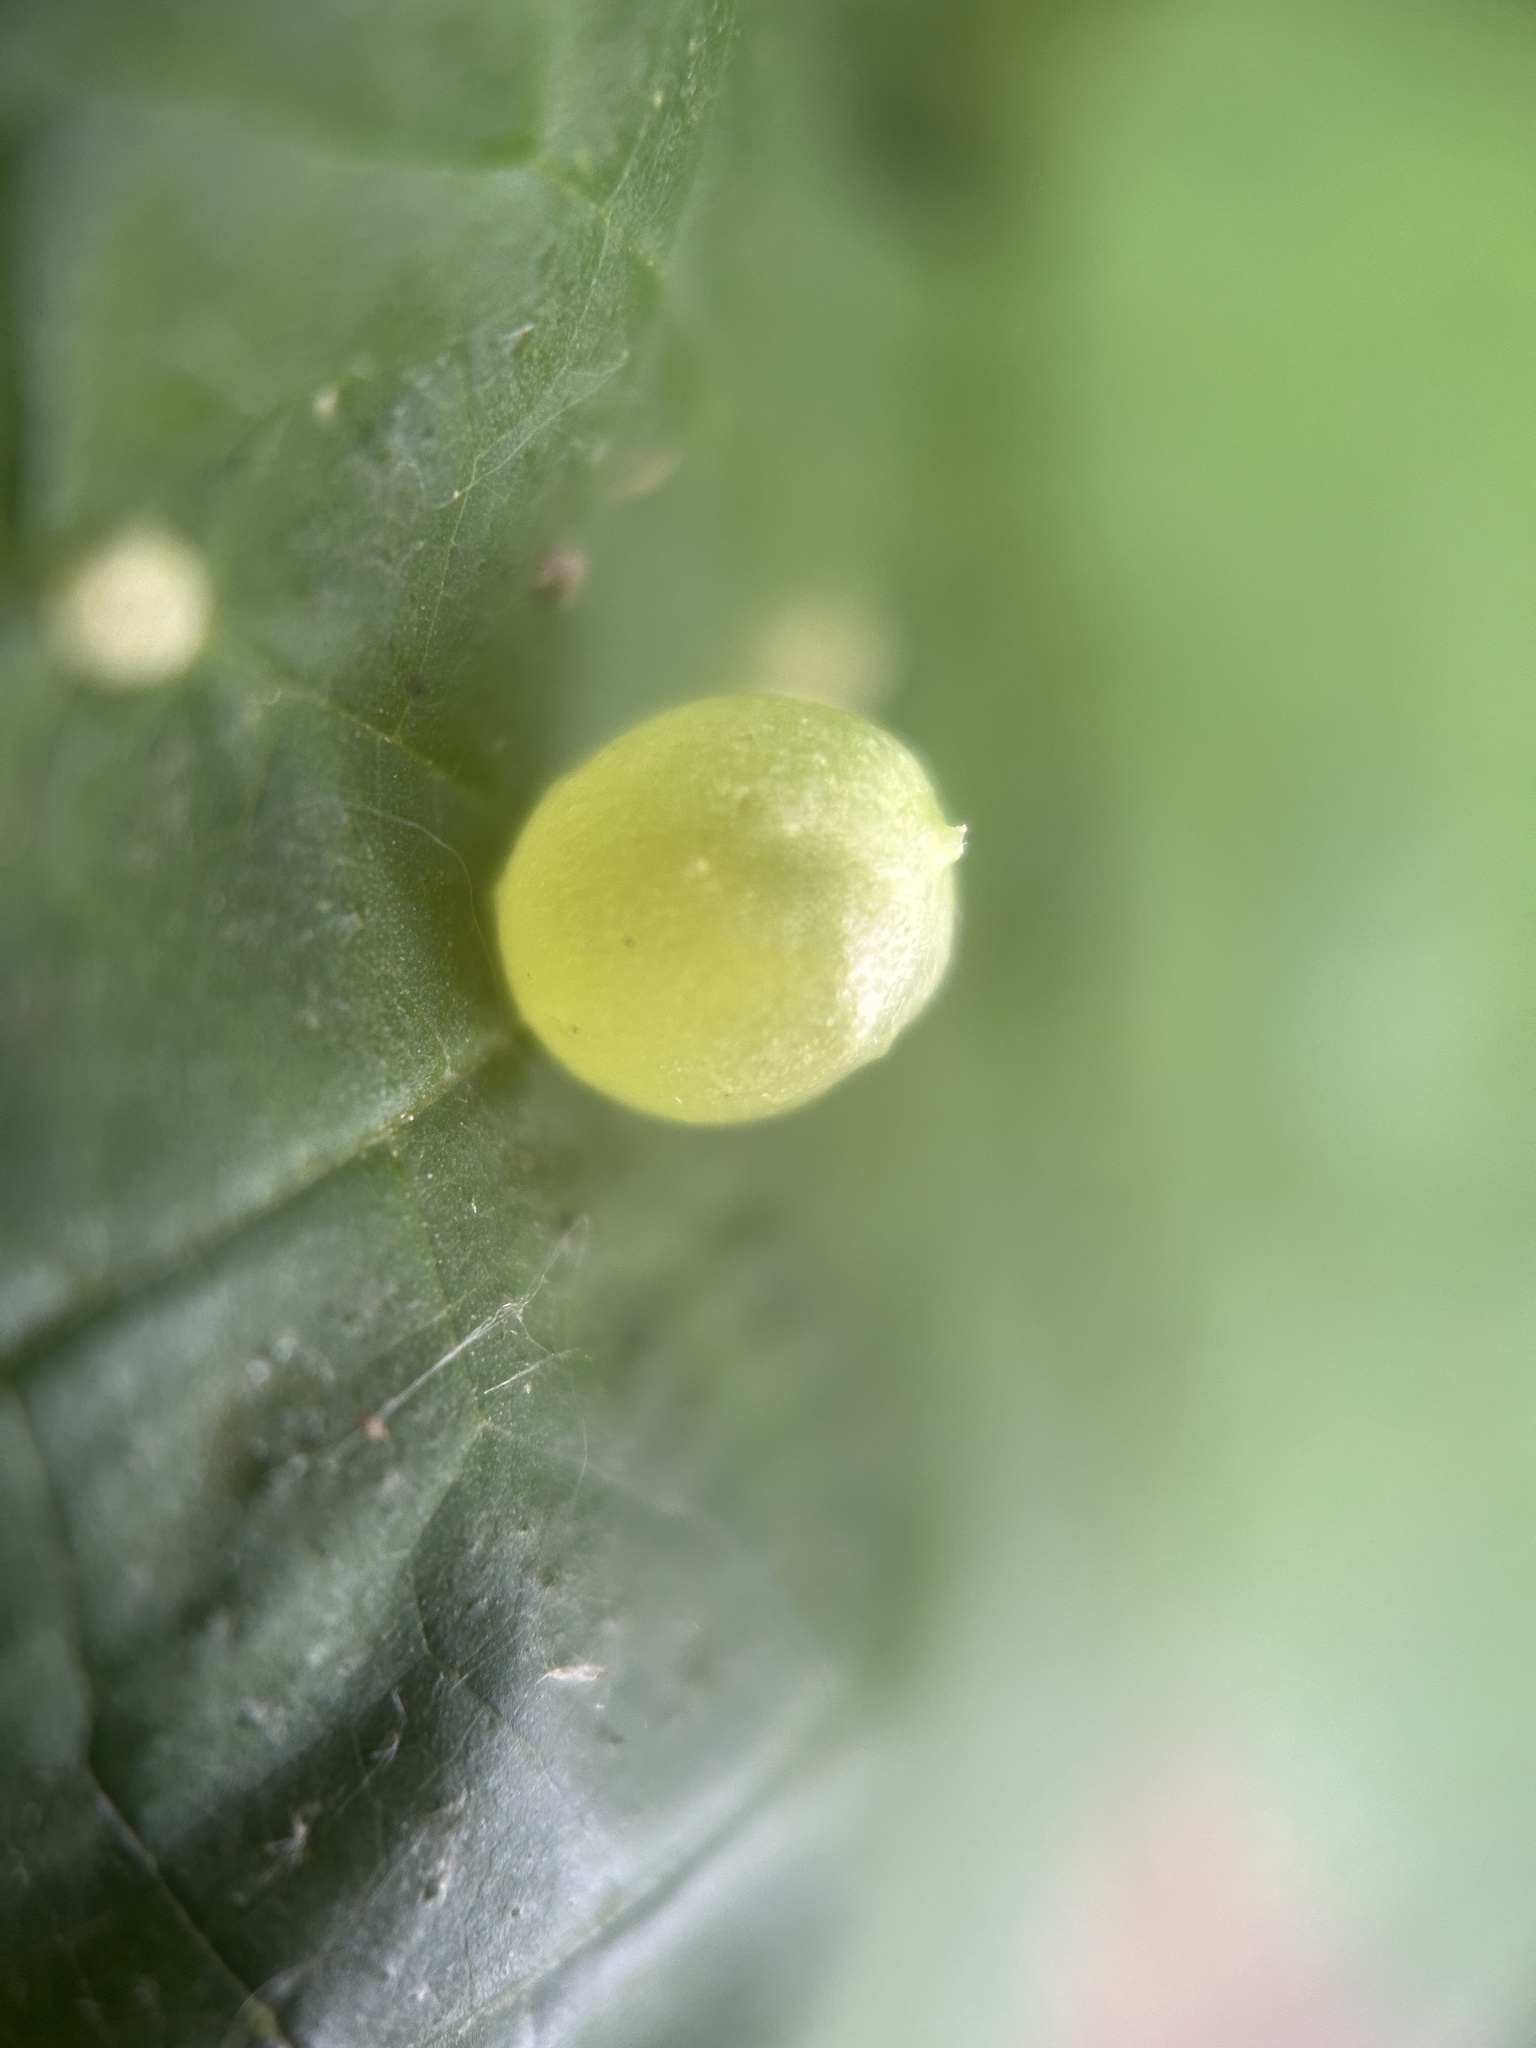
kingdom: Animalia
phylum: Arthropoda
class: Insecta
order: Diptera
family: Cecidomyiidae
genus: Dasineura
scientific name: Dasineura investita
